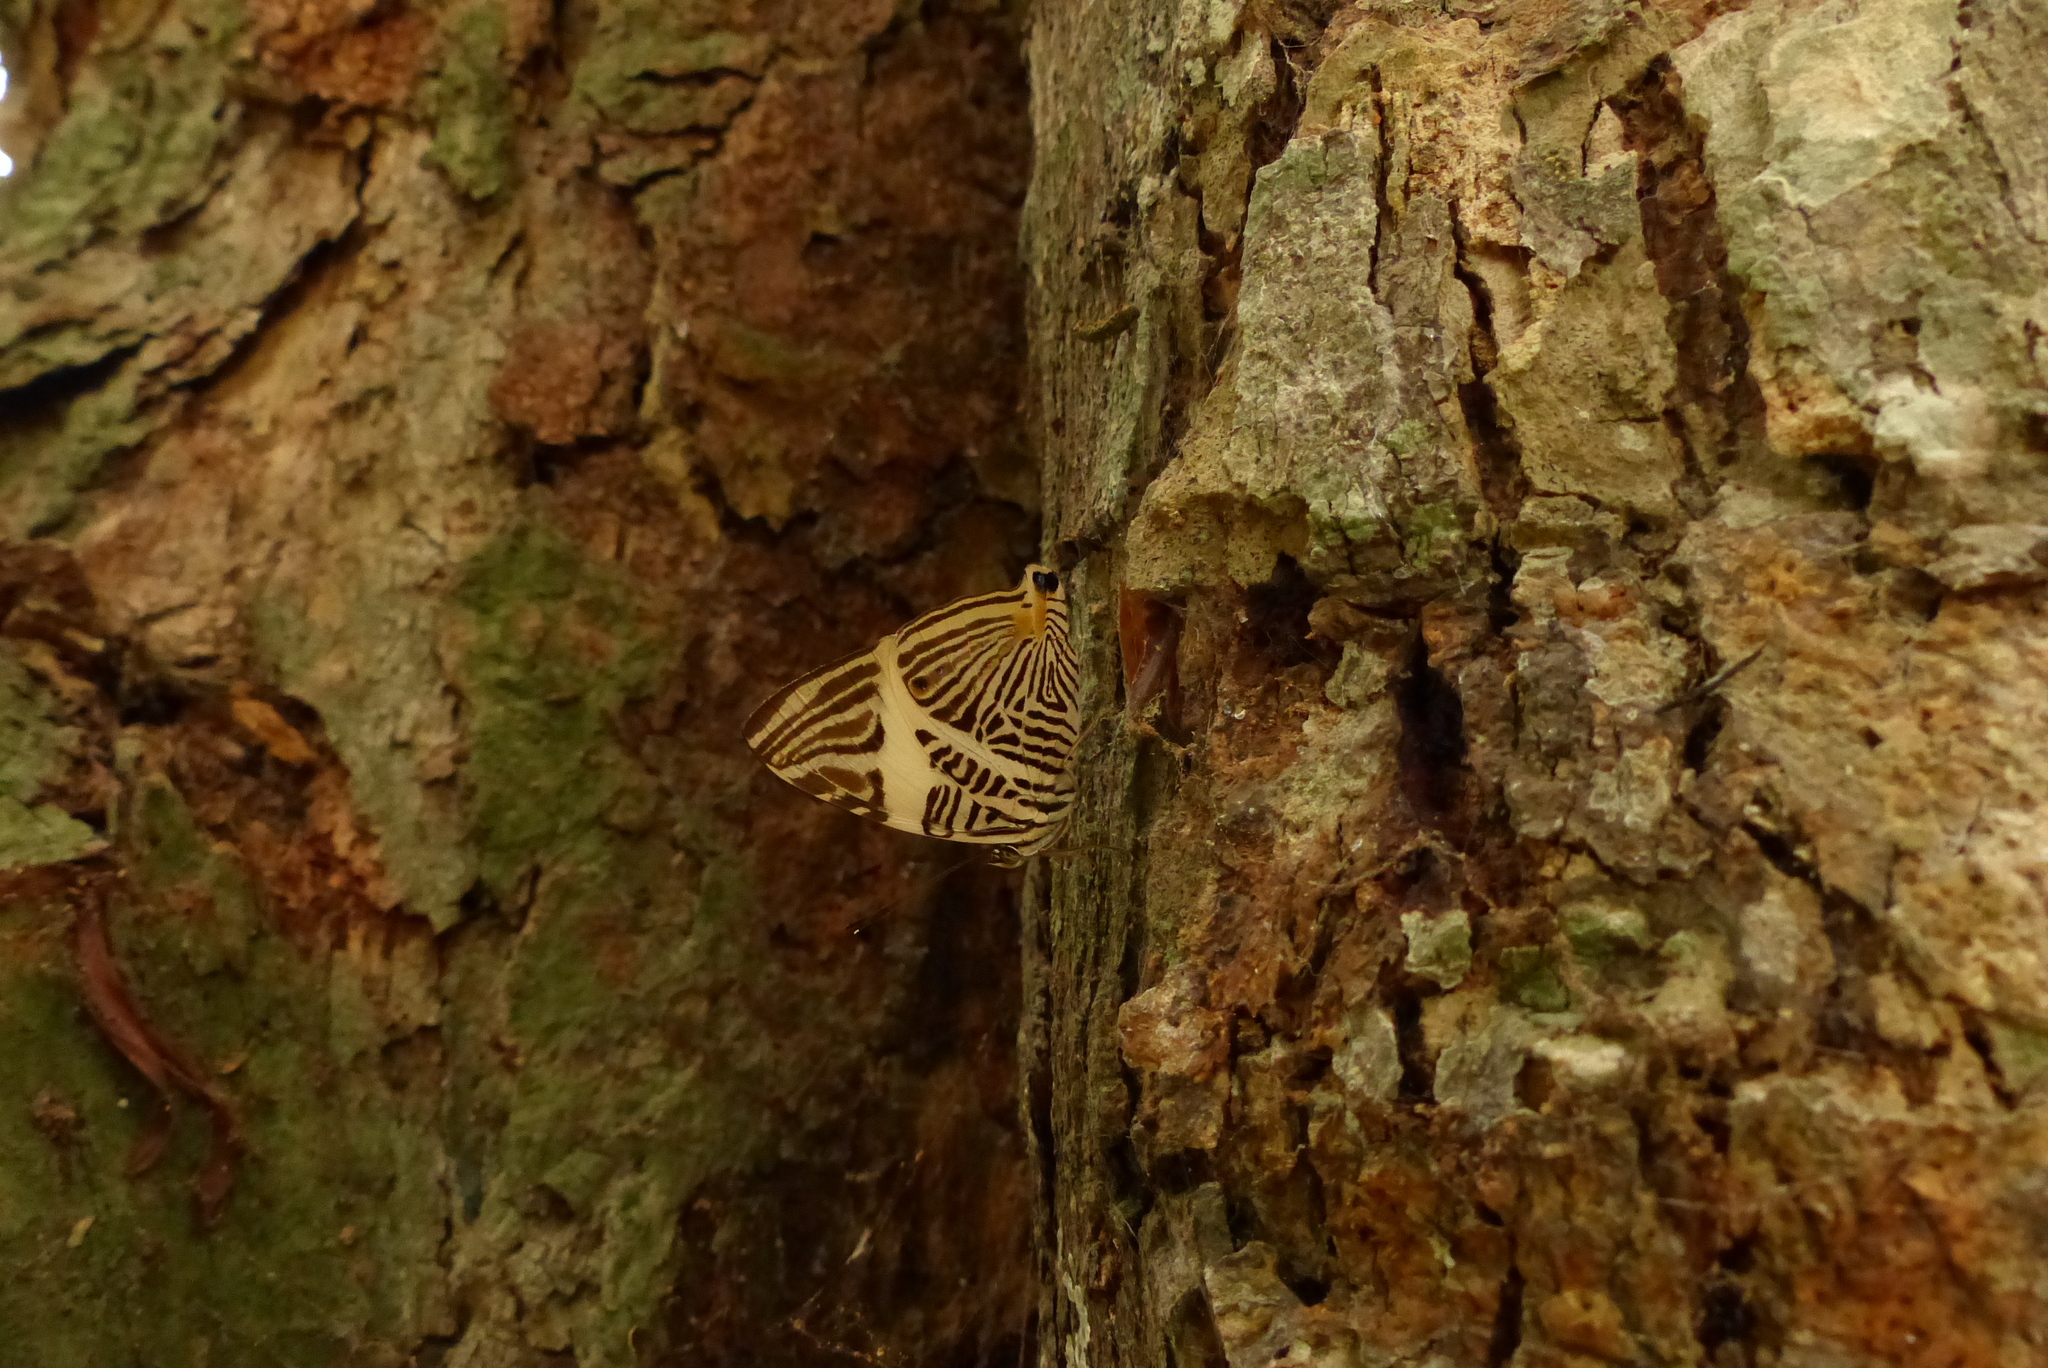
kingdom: Animalia
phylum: Arthropoda
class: Insecta
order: Lepidoptera
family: Nymphalidae
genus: Colobura
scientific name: Colobura dirce
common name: Dirce beauty
